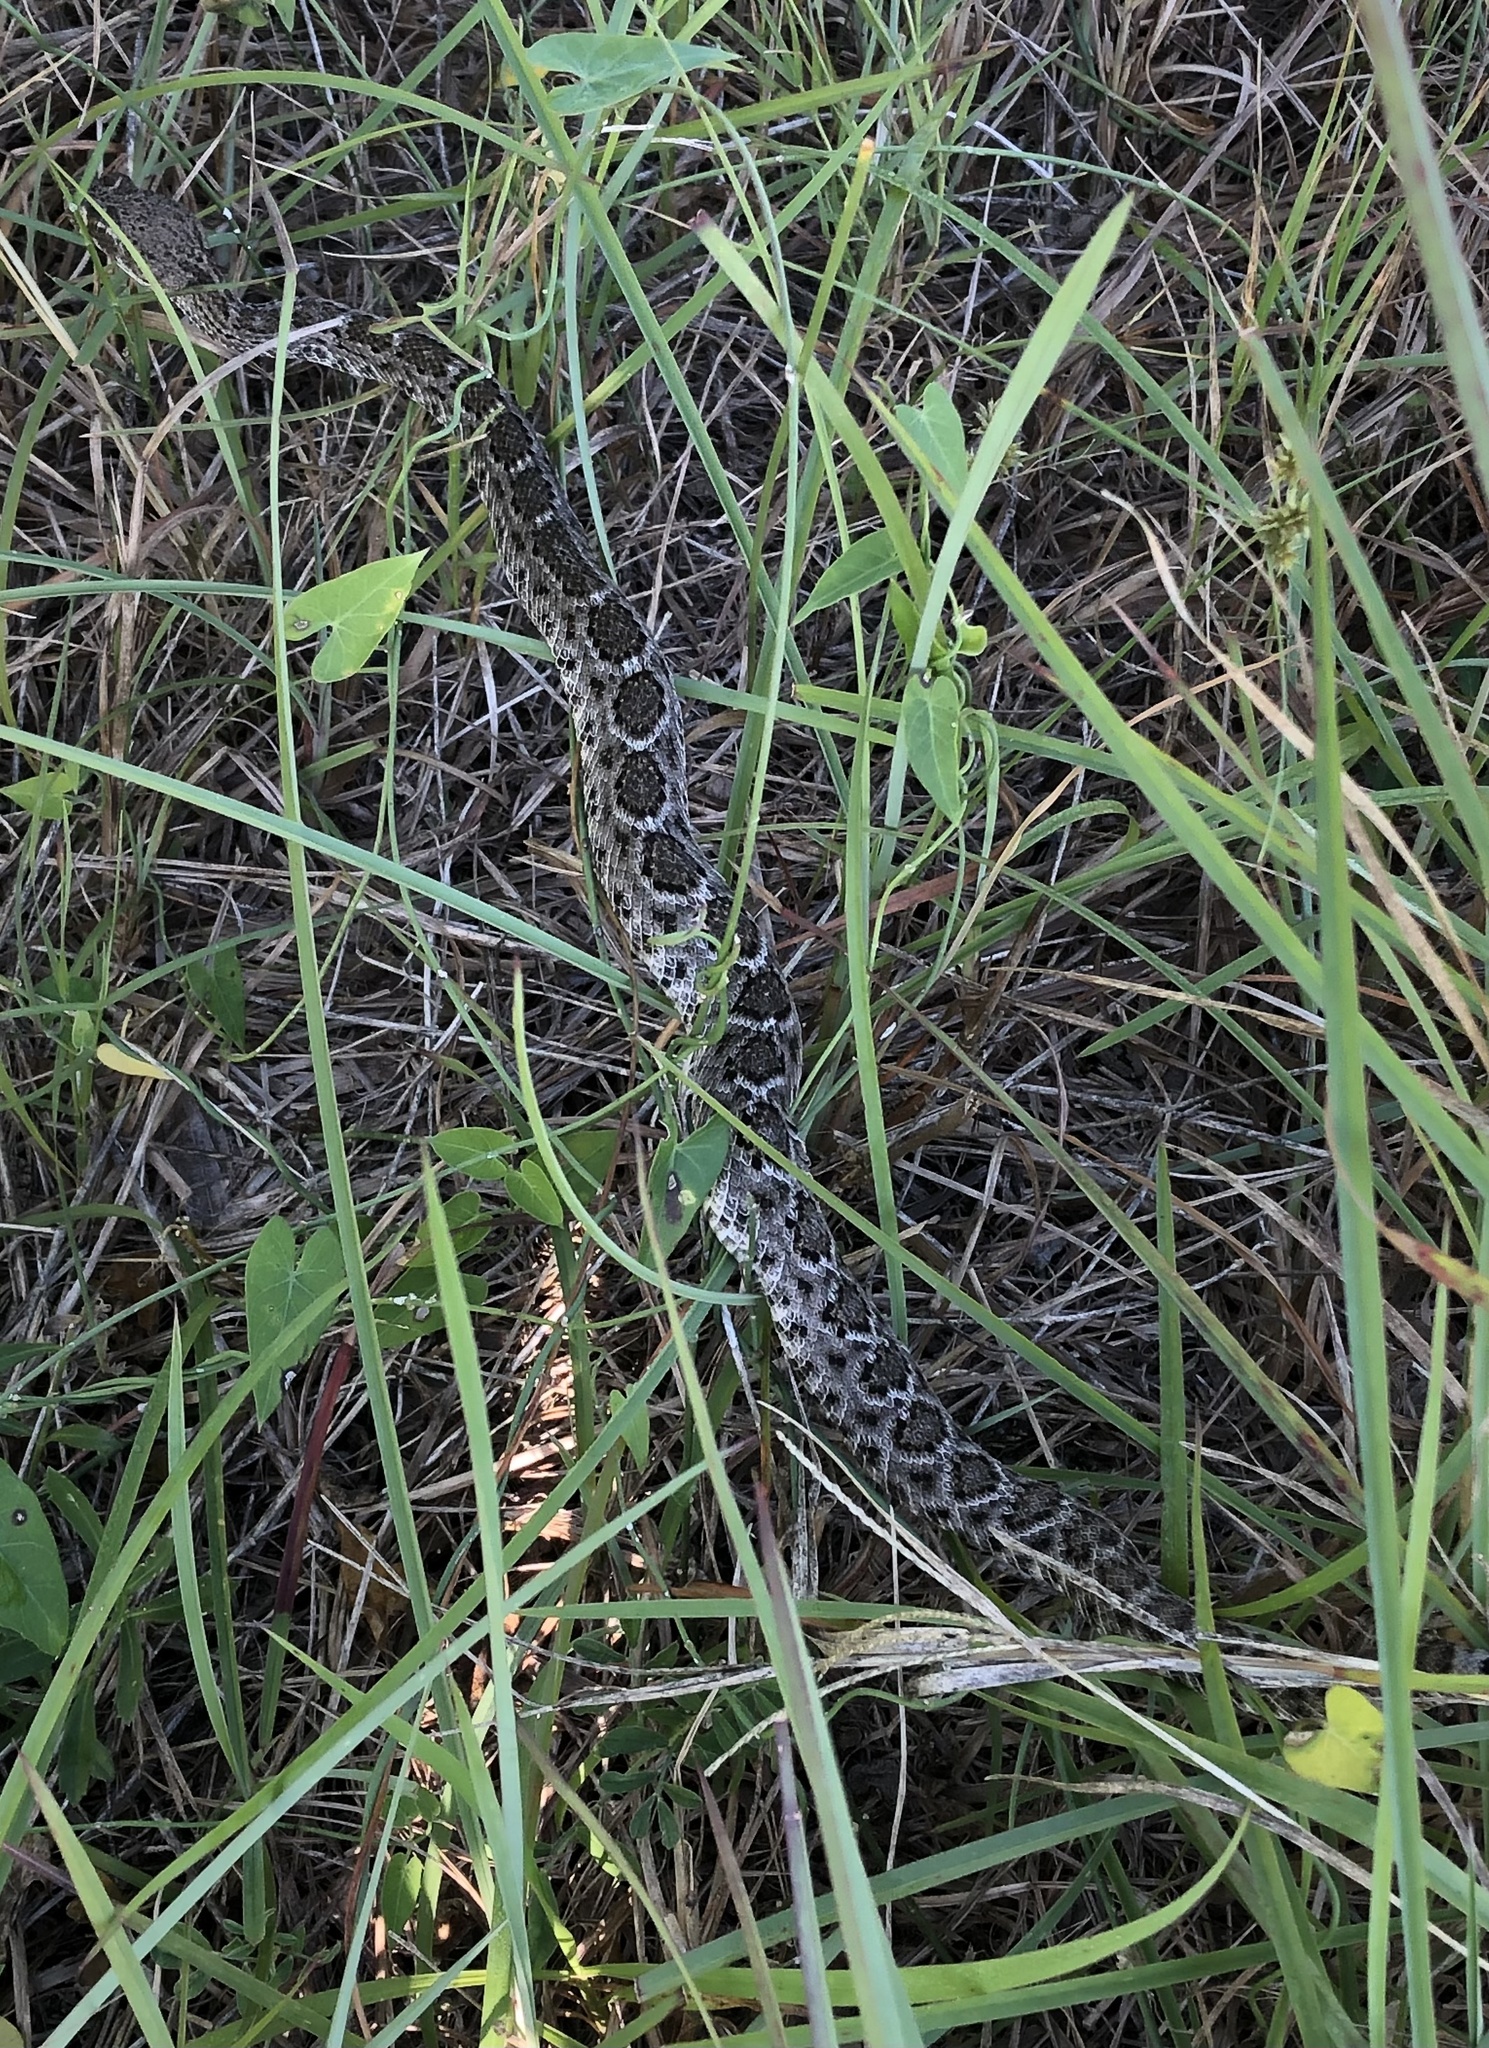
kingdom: Animalia
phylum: Chordata
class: Squamata
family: Viperidae
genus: Crotalus
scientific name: Crotalus atrox
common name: Western diamond-backed rattlesnake
